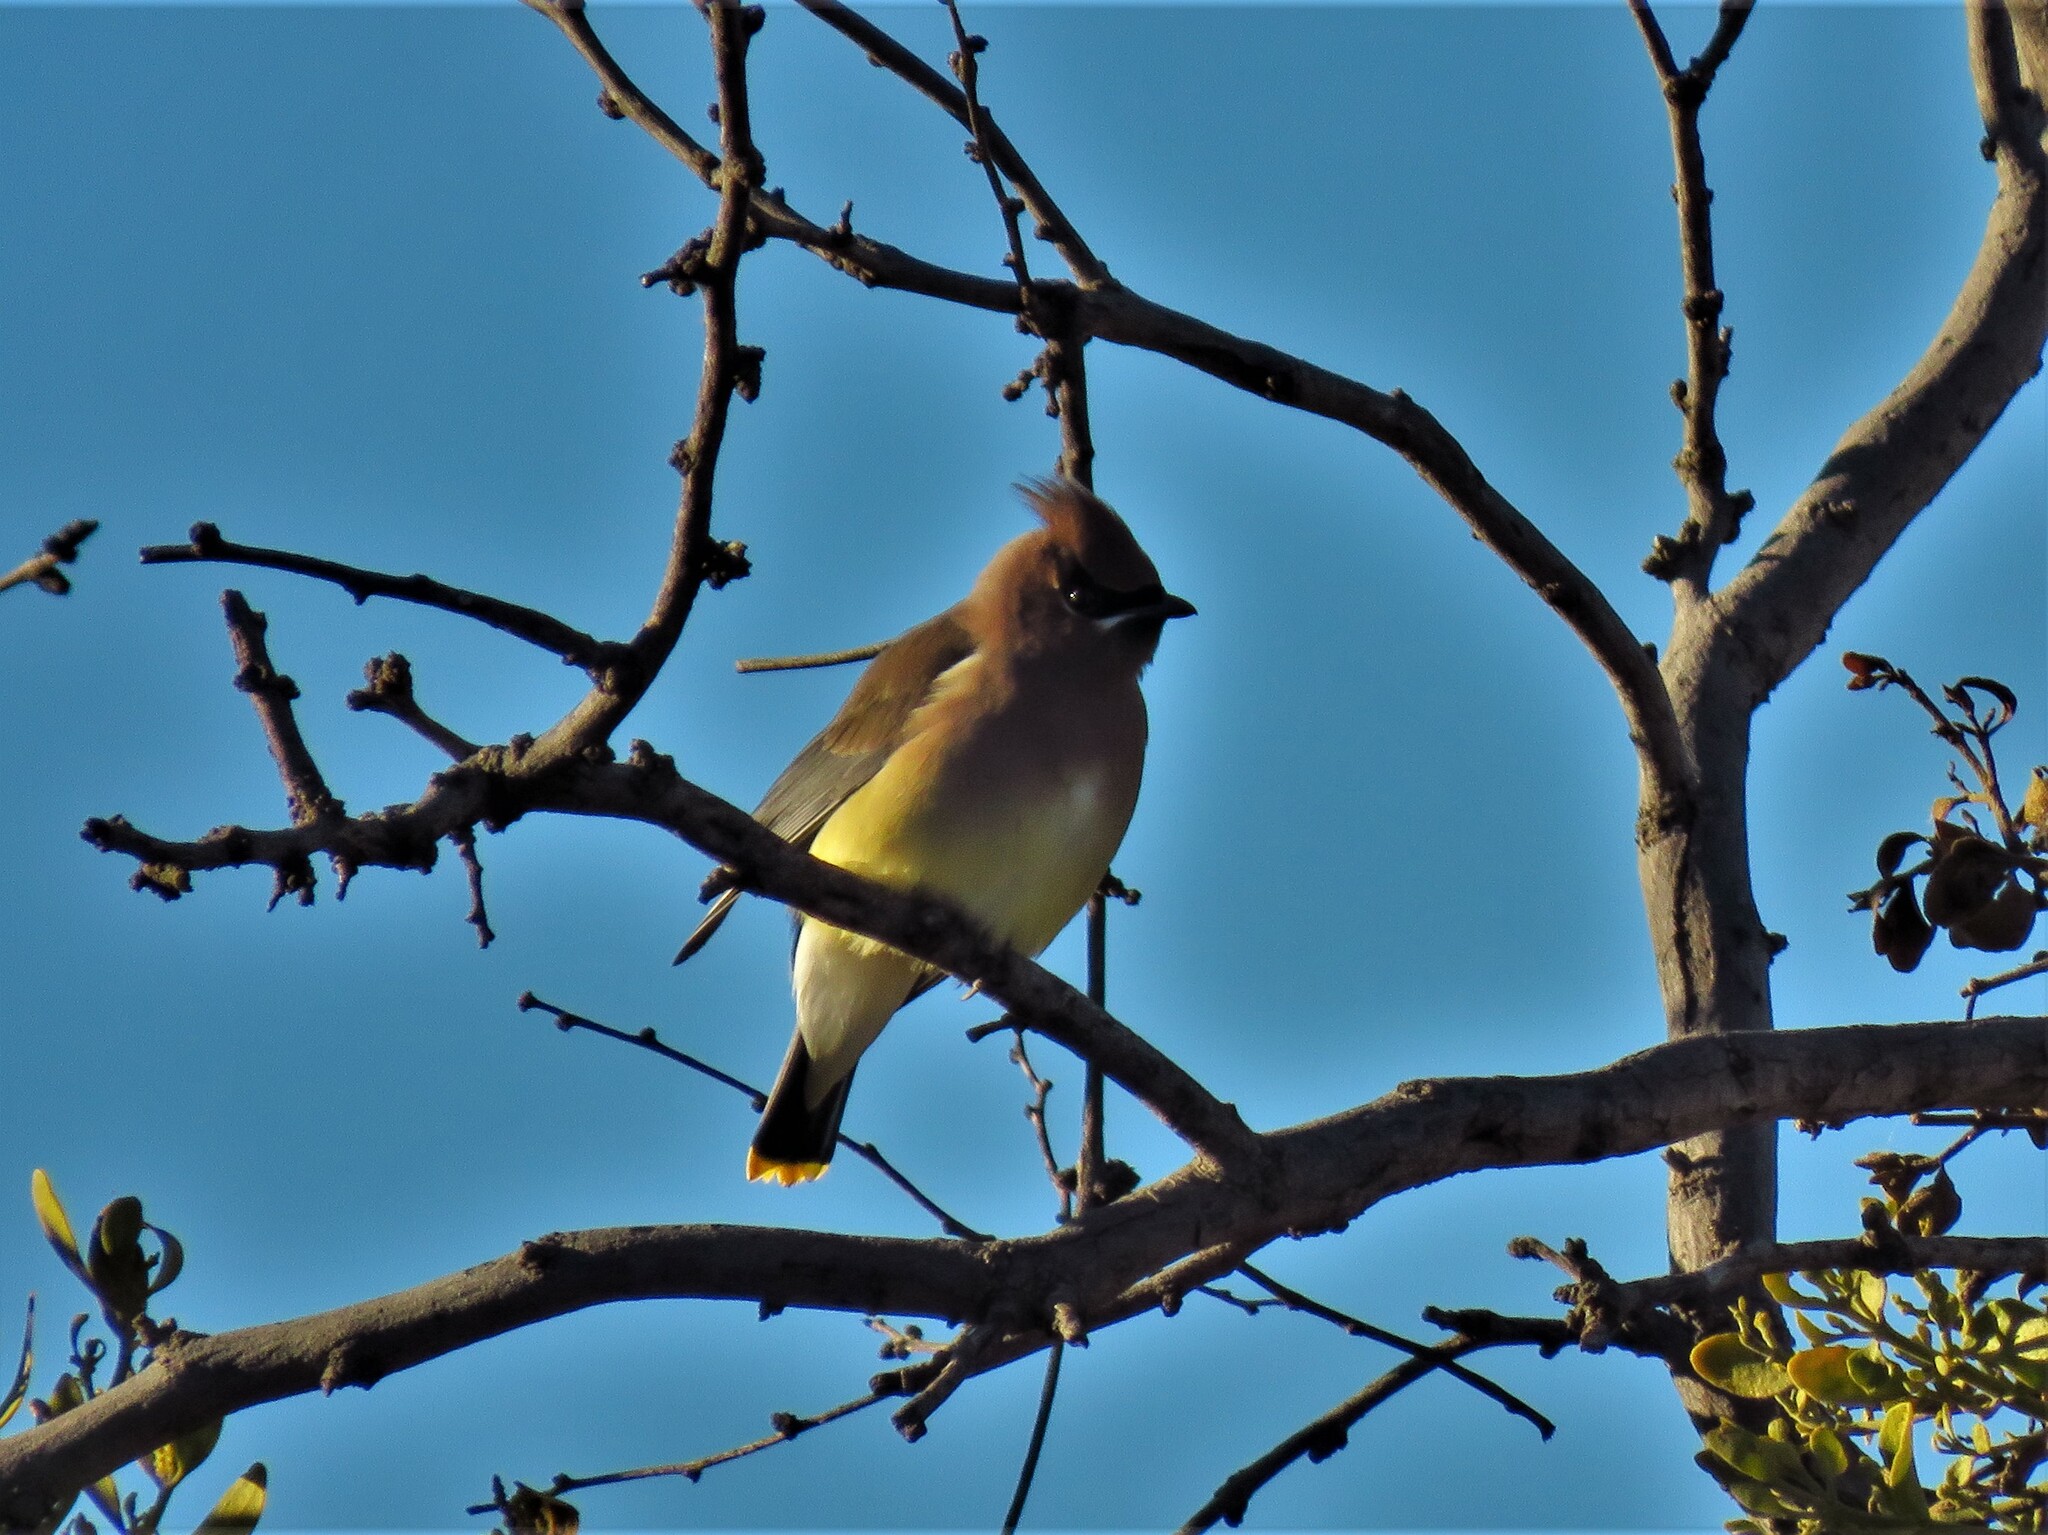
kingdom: Animalia
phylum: Chordata
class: Aves
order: Passeriformes
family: Bombycillidae
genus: Bombycilla
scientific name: Bombycilla cedrorum
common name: Cedar waxwing
